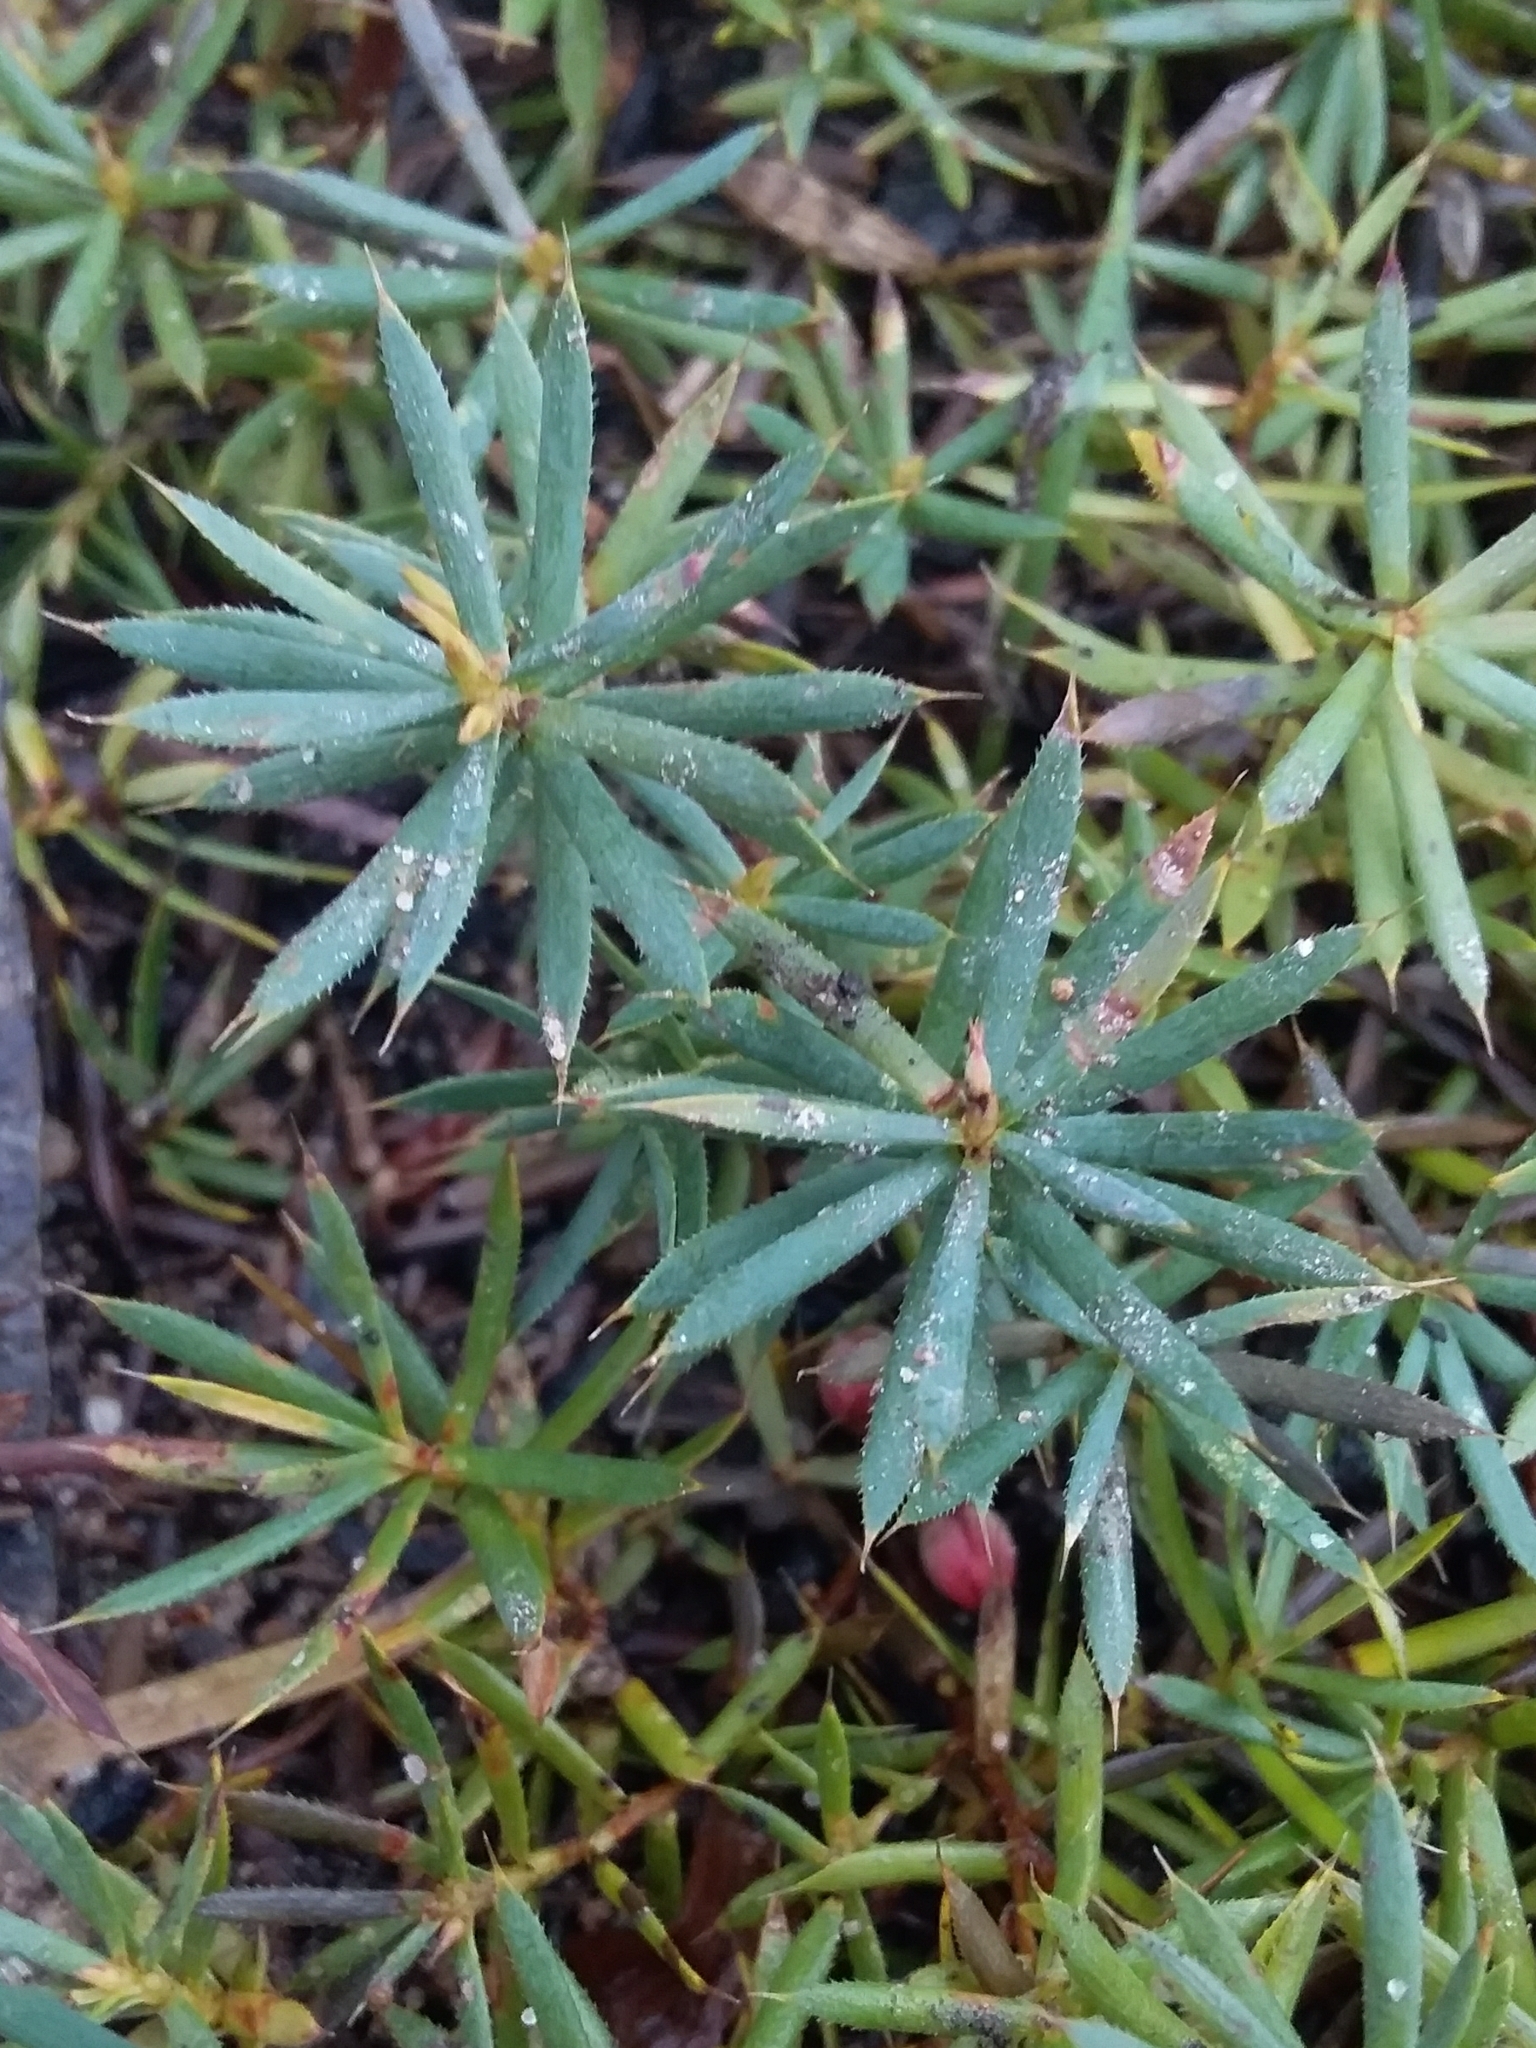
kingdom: Plantae
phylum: Tracheophyta
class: Magnoliopsida
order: Ericales
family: Ericaceae
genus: Styphelia
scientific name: Styphelia humifusa
